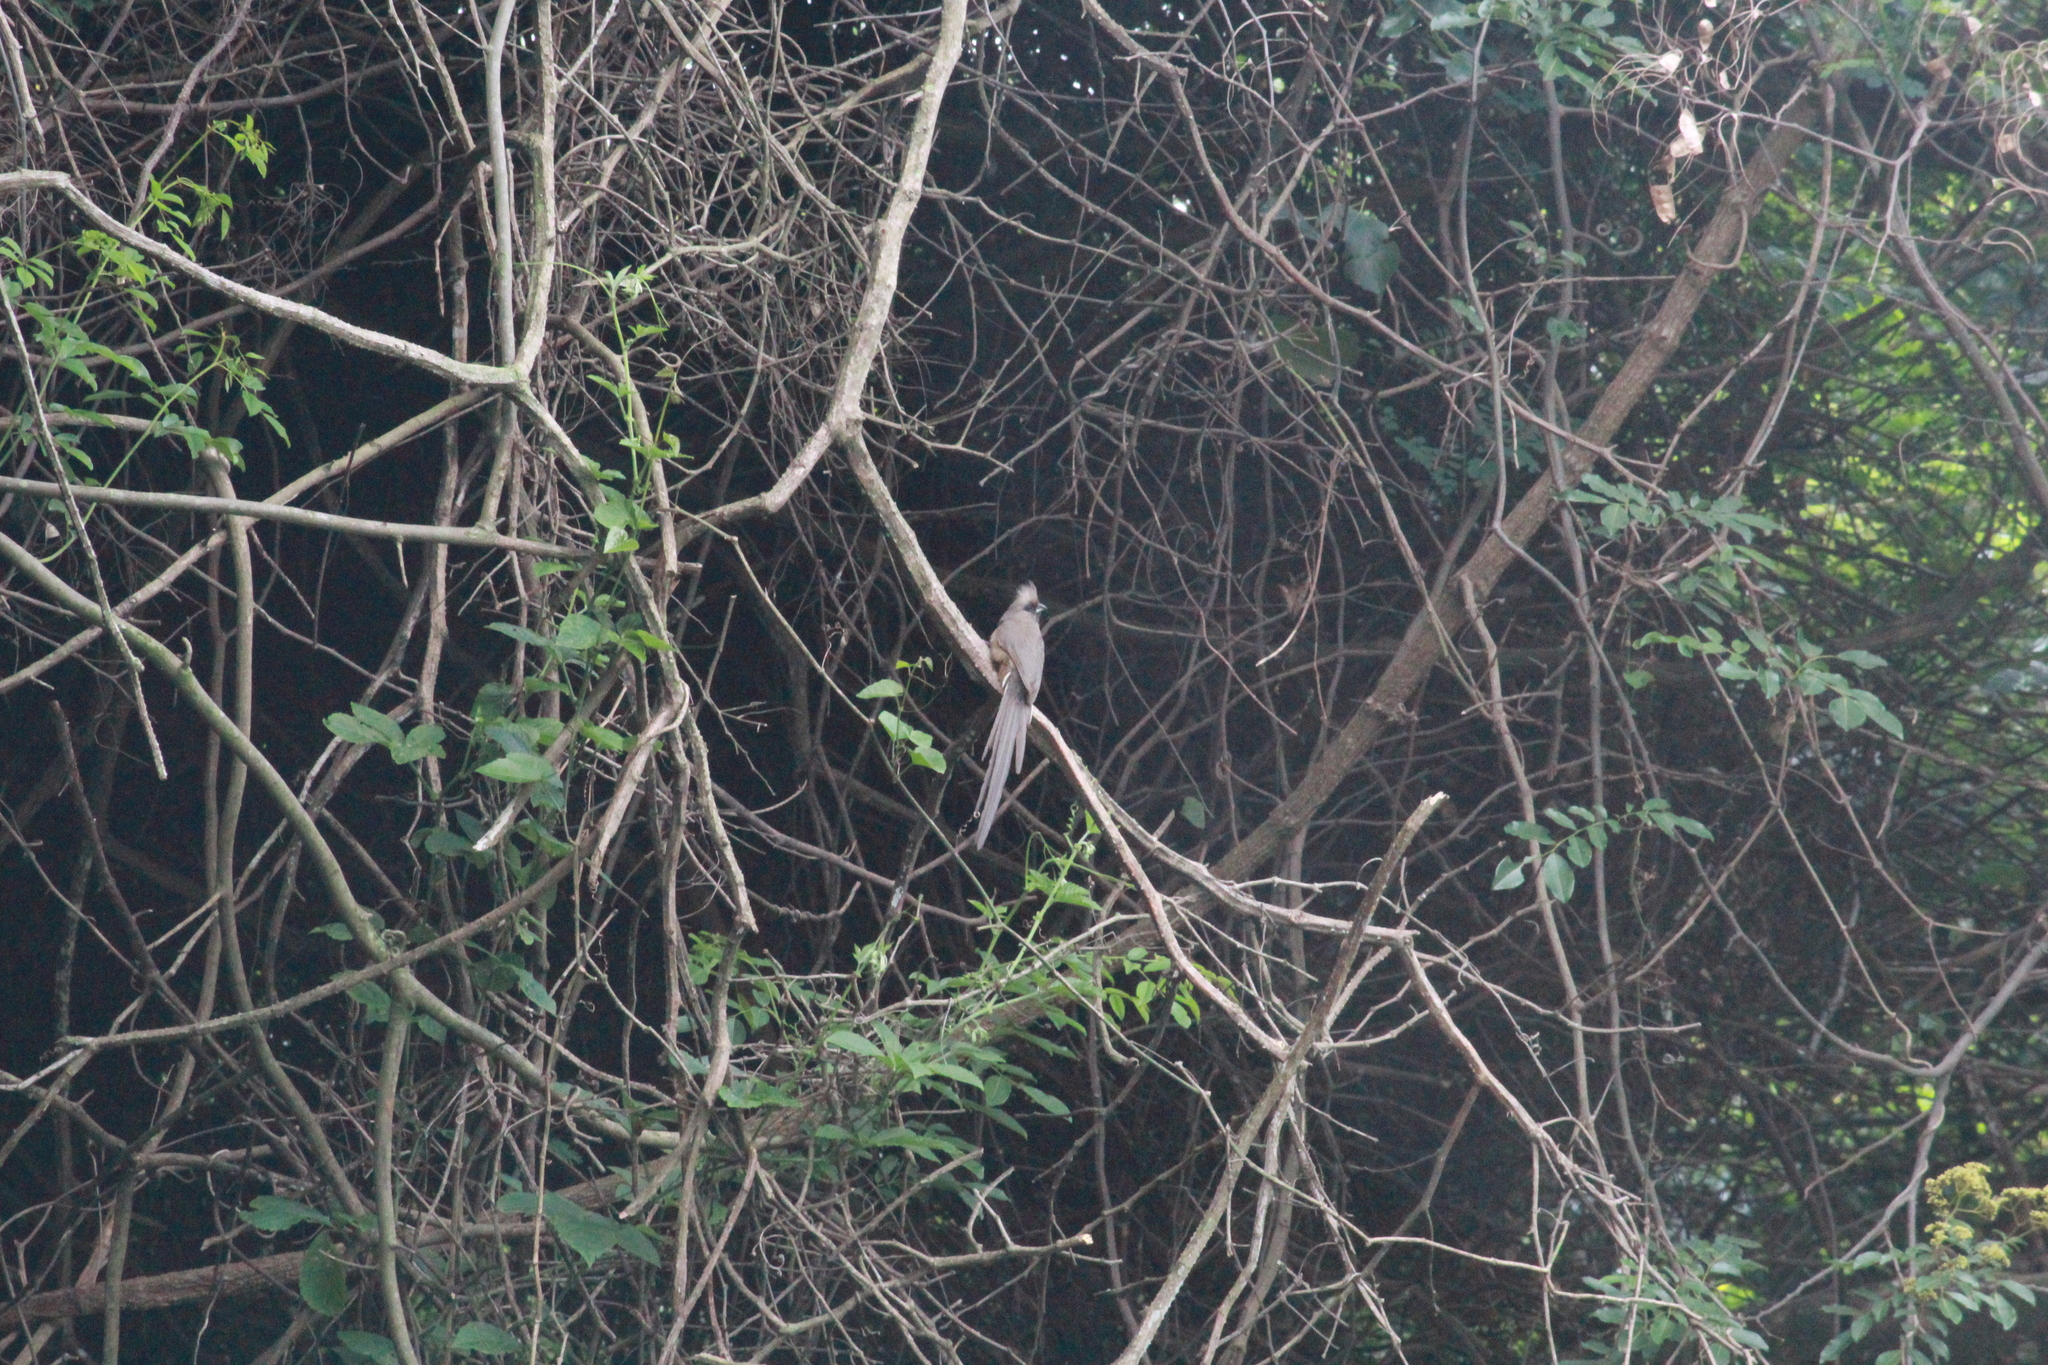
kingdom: Animalia
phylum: Chordata
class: Aves
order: Coliiformes
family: Coliidae
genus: Colius
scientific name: Colius striatus
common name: Speckled mousebird
